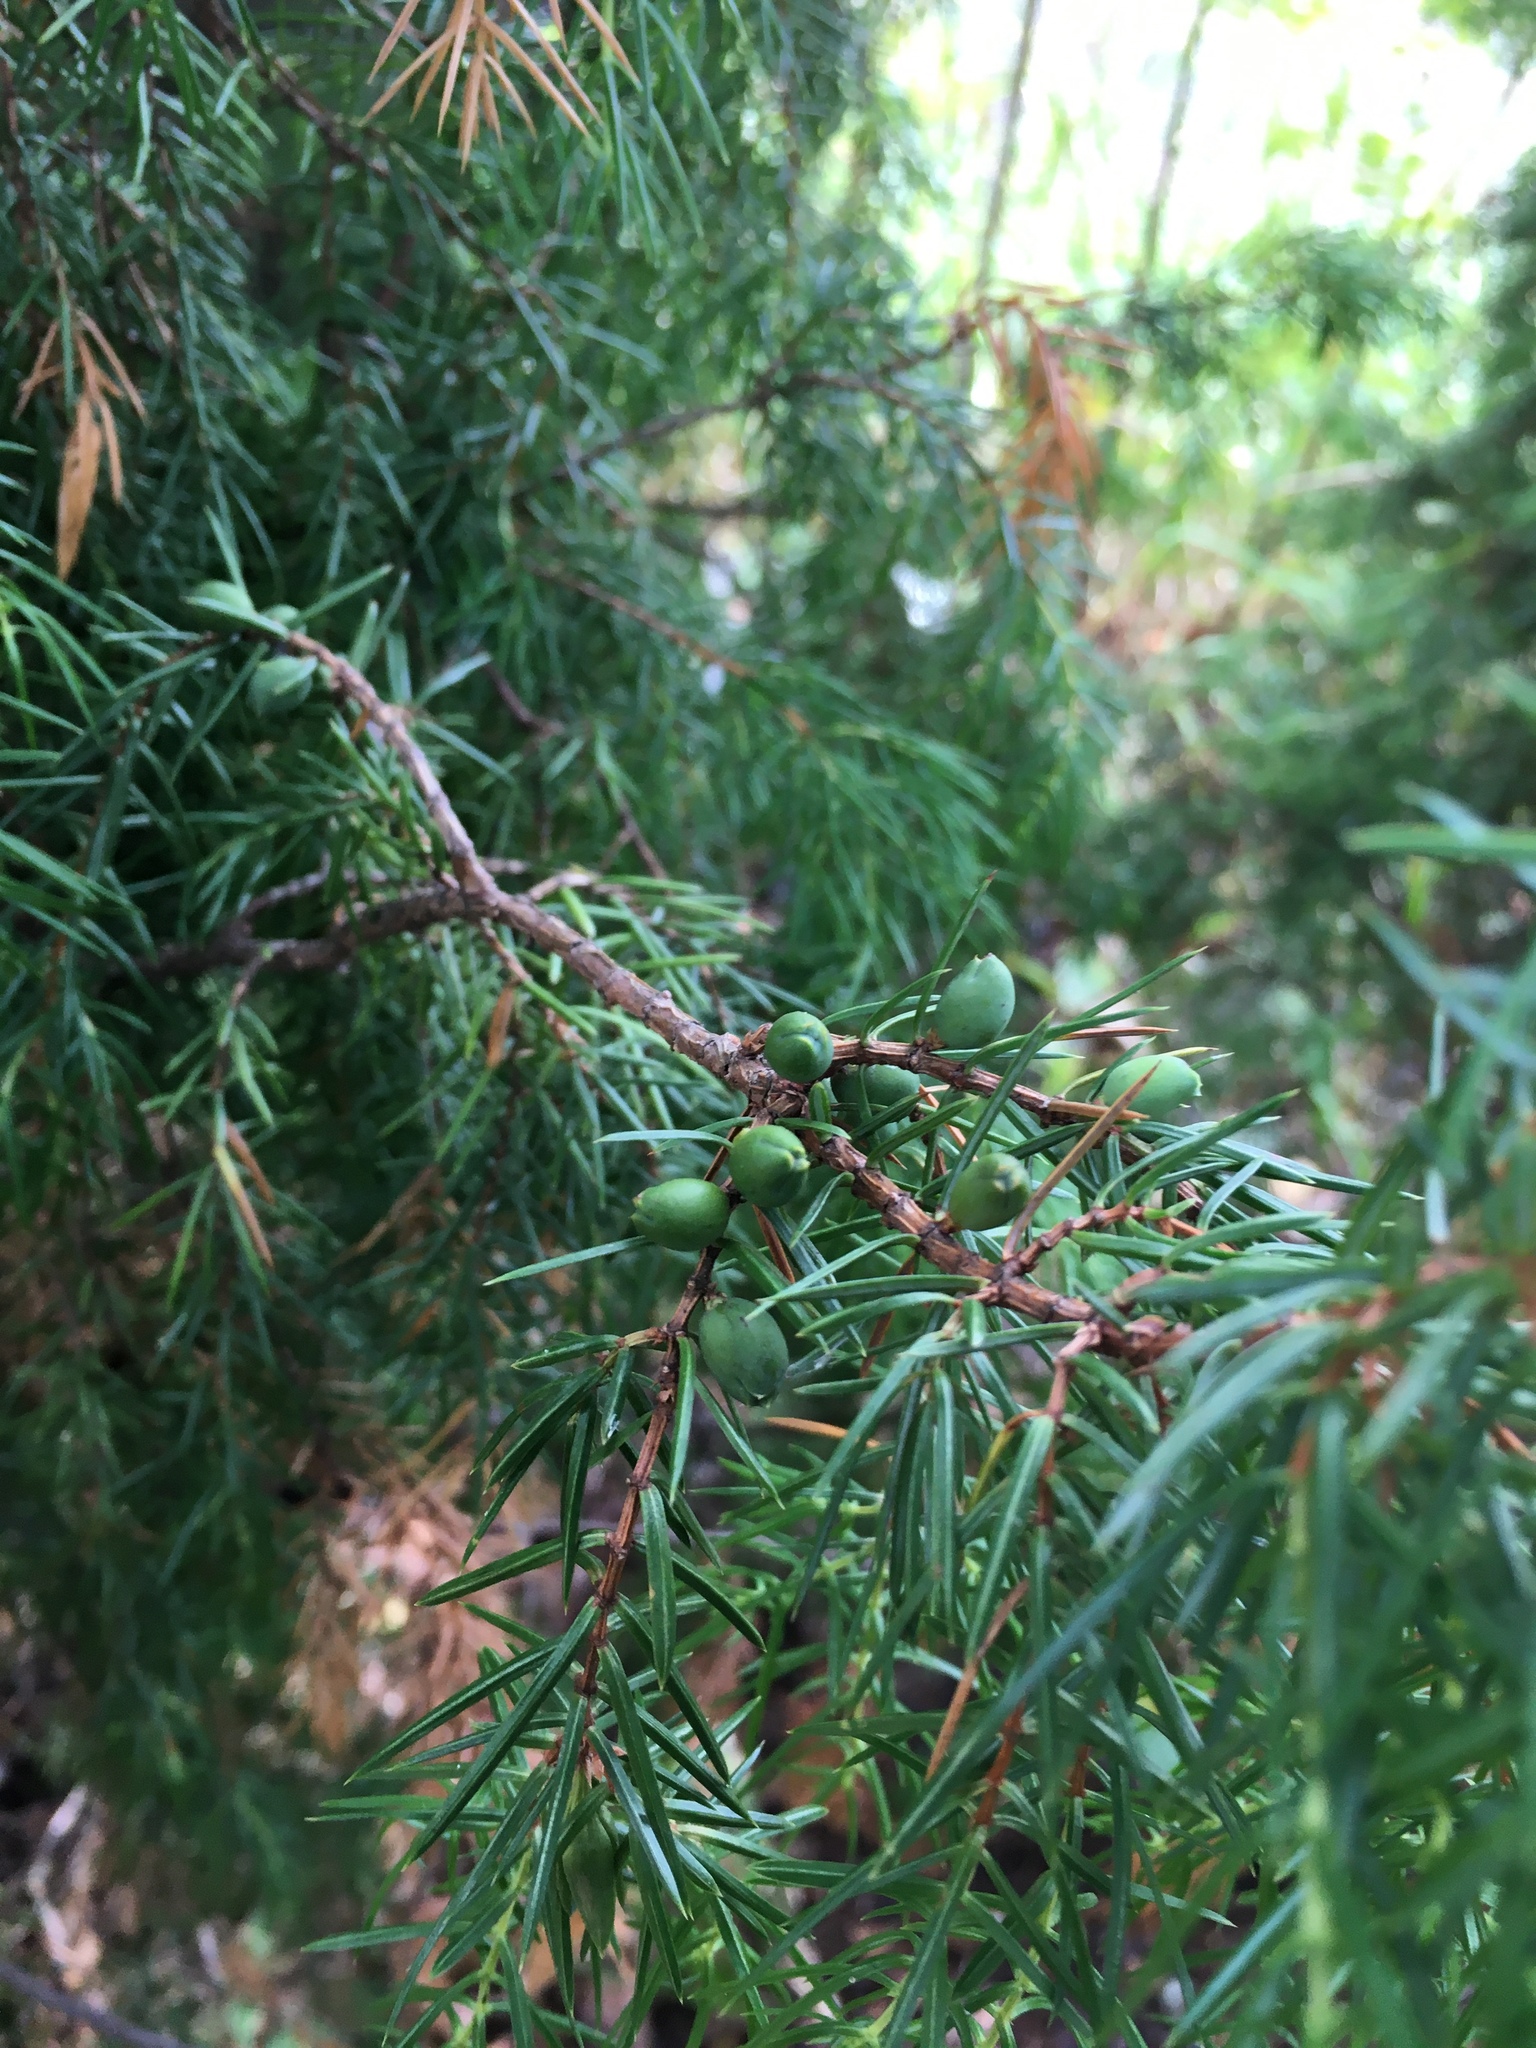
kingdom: Plantae
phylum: Tracheophyta
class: Pinopsida
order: Pinales
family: Cupressaceae
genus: Juniperus
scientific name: Juniperus communis
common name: Common juniper
